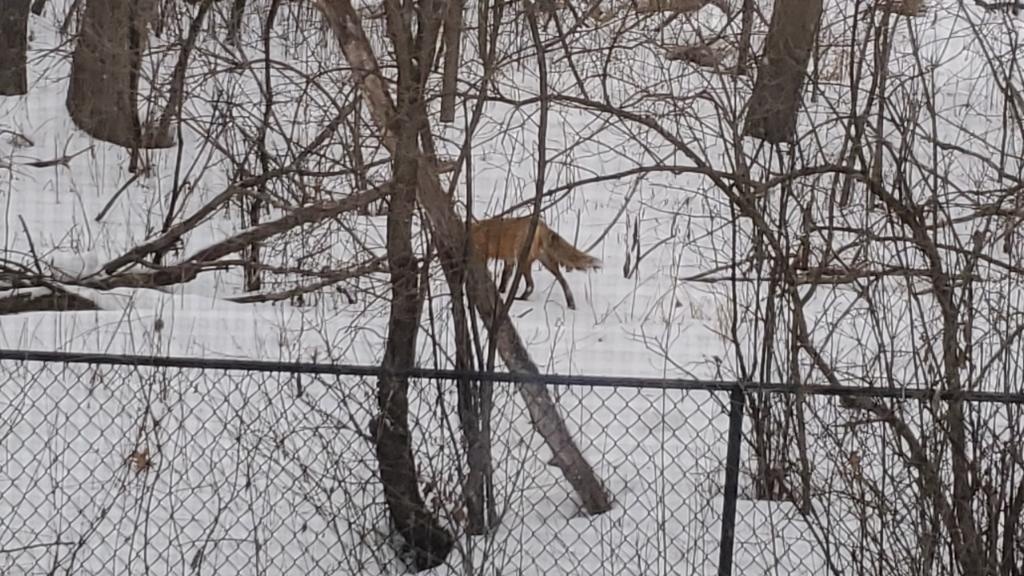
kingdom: Animalia
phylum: Chordata
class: Mammalia
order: Carnivora
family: Canidae
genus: Vulpes
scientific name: Vulpes vulpes
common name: Red fox
